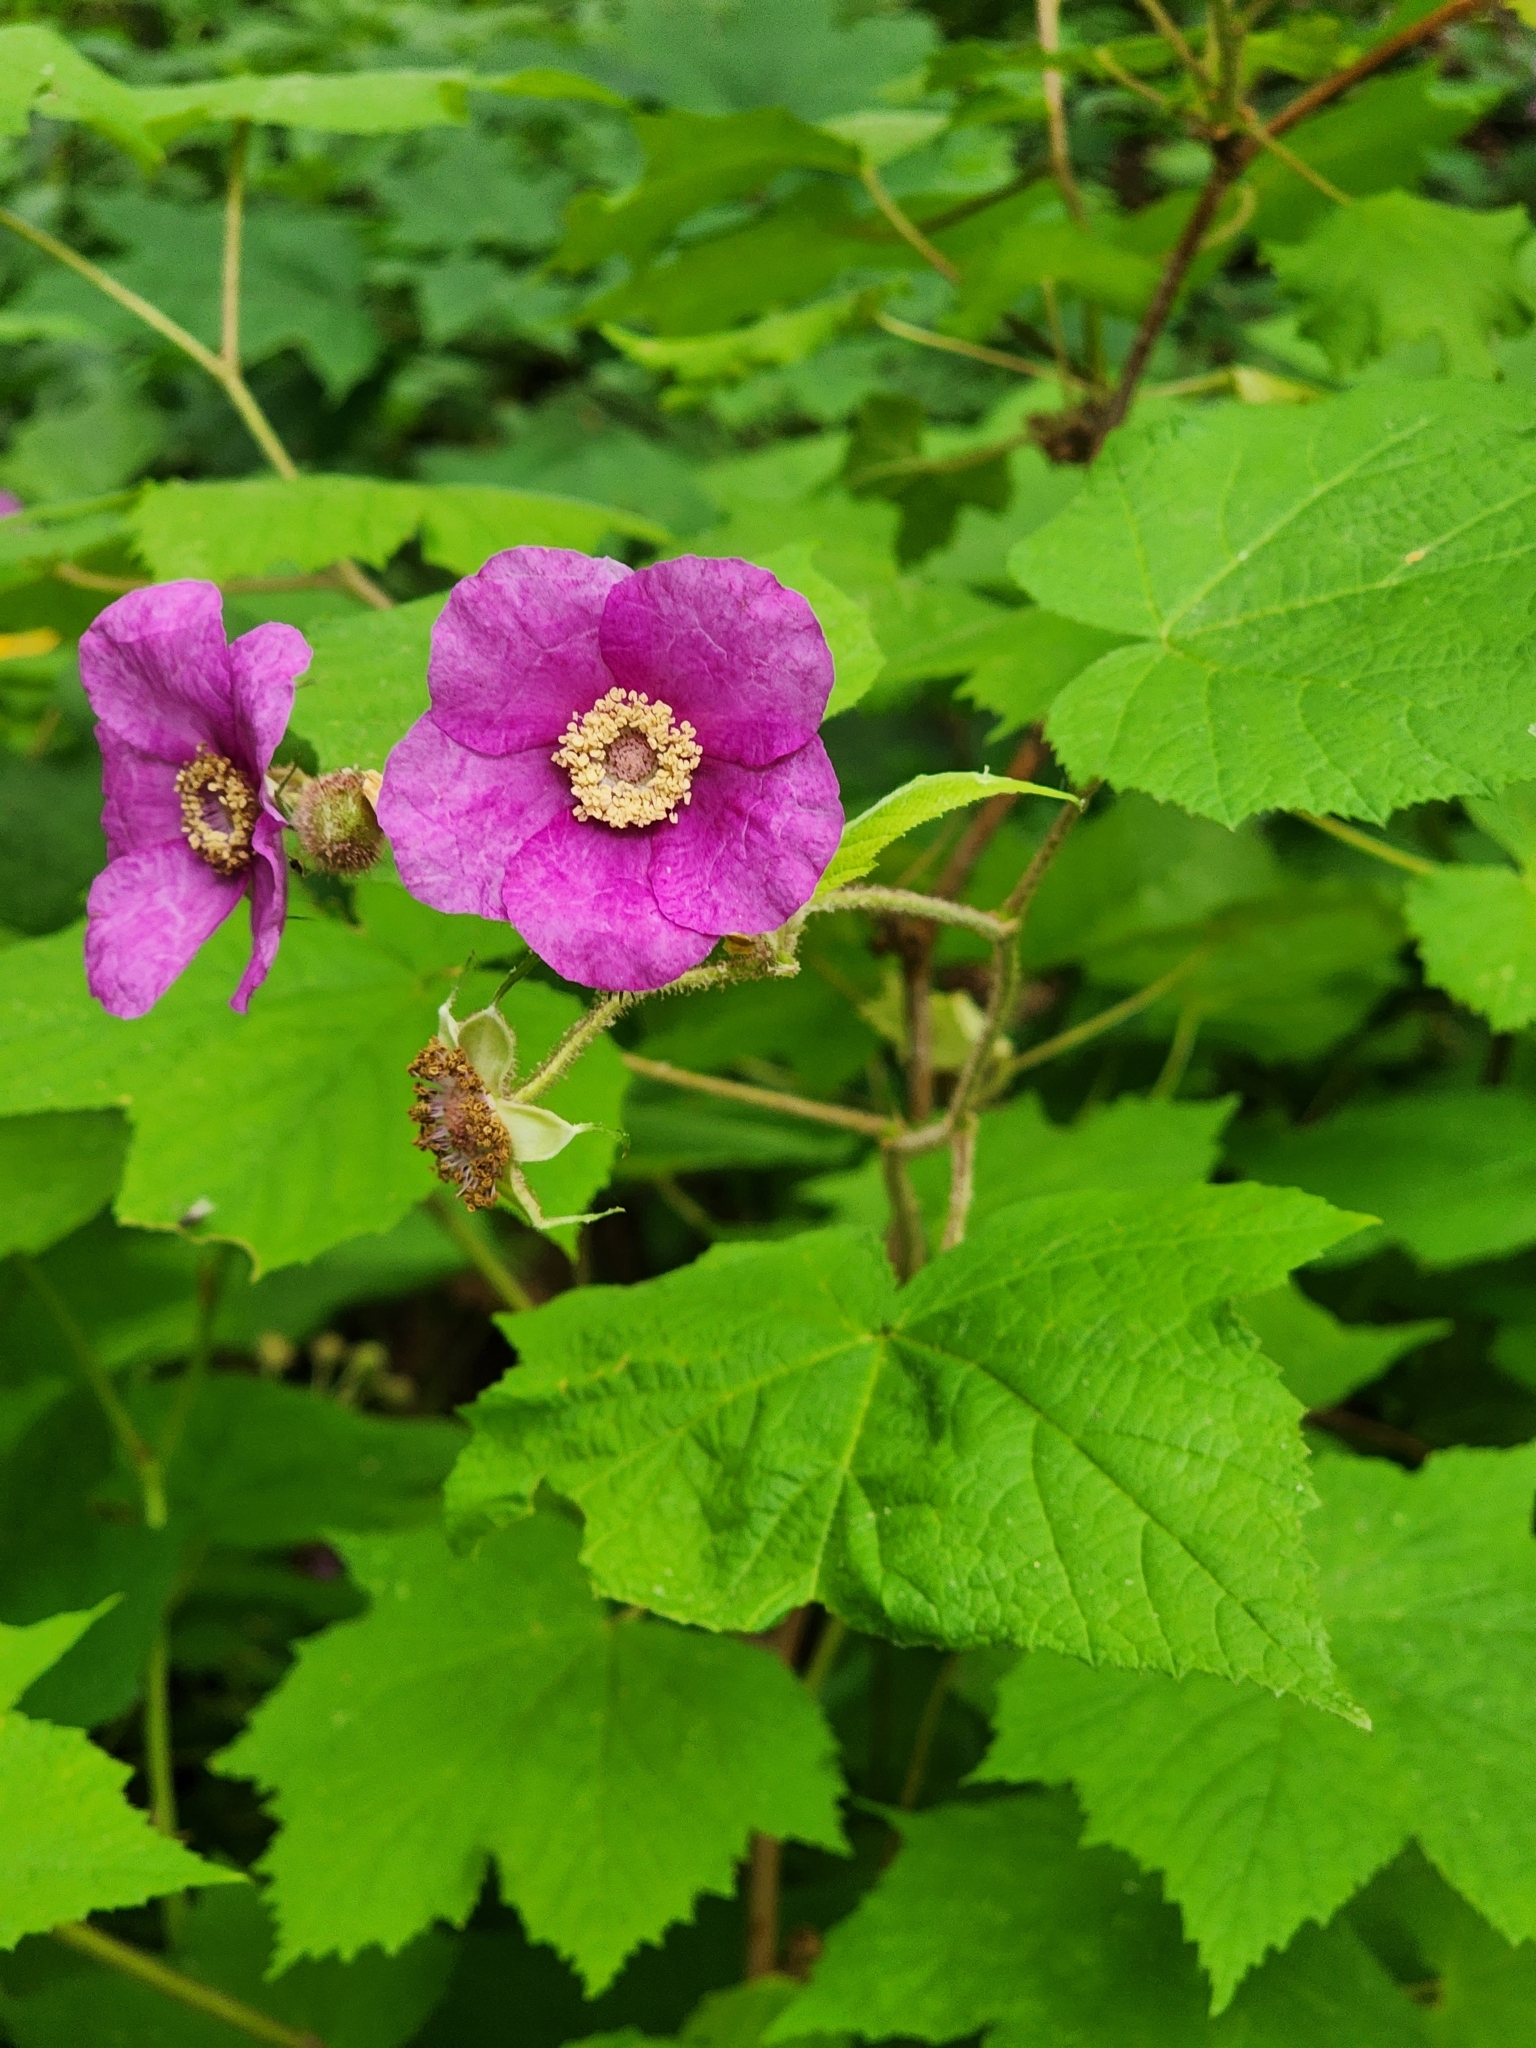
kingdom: Plantae
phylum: Tracheophyta
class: Magnoliopsida
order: Rosales
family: Rosaceae
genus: Rubus
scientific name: Rubus odoratus
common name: Purple-flowered raspberry
